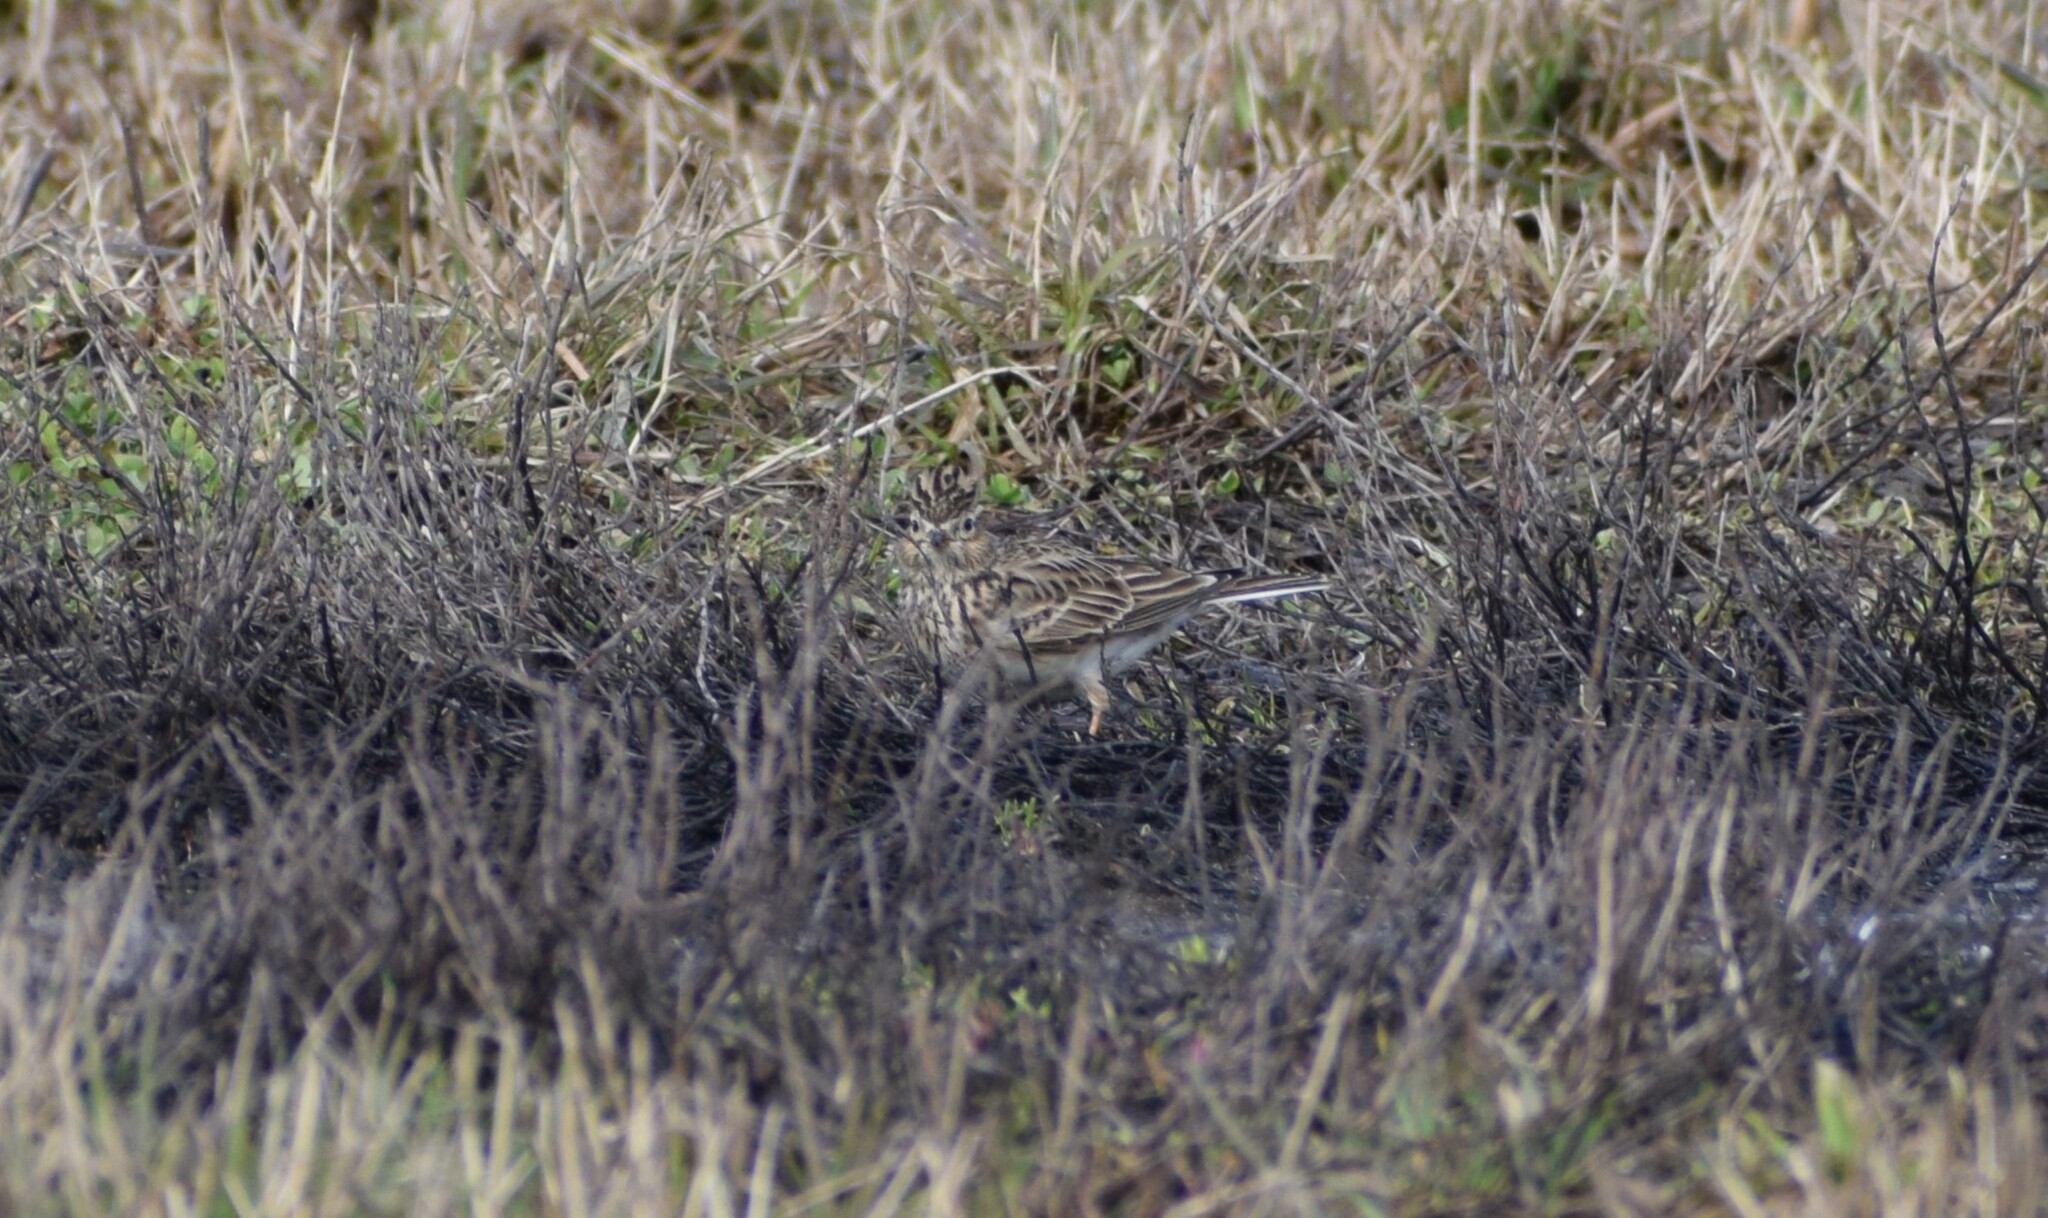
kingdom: Animalia
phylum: Chordata
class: Aves
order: Passeriformes
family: Alaudidae
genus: Alauda
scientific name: Alauda arvensis
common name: Eurasian skylark
